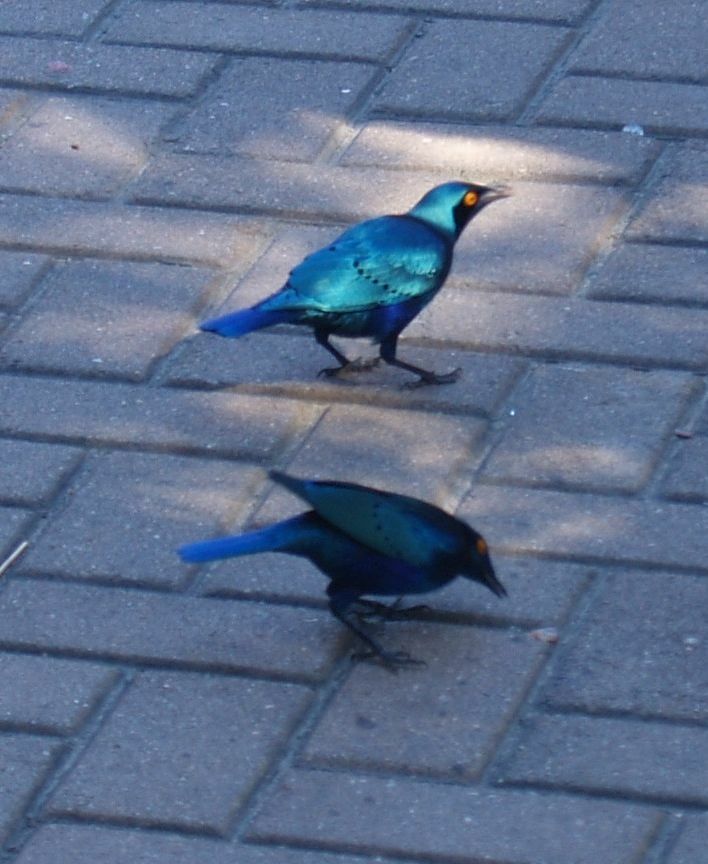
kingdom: Animalia
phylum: Chordata
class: Aves
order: Passeriformes
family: Sturnidae
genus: Lamprotornis
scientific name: Lamprotornis chalybaeus
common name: Greater blue-eared starling
